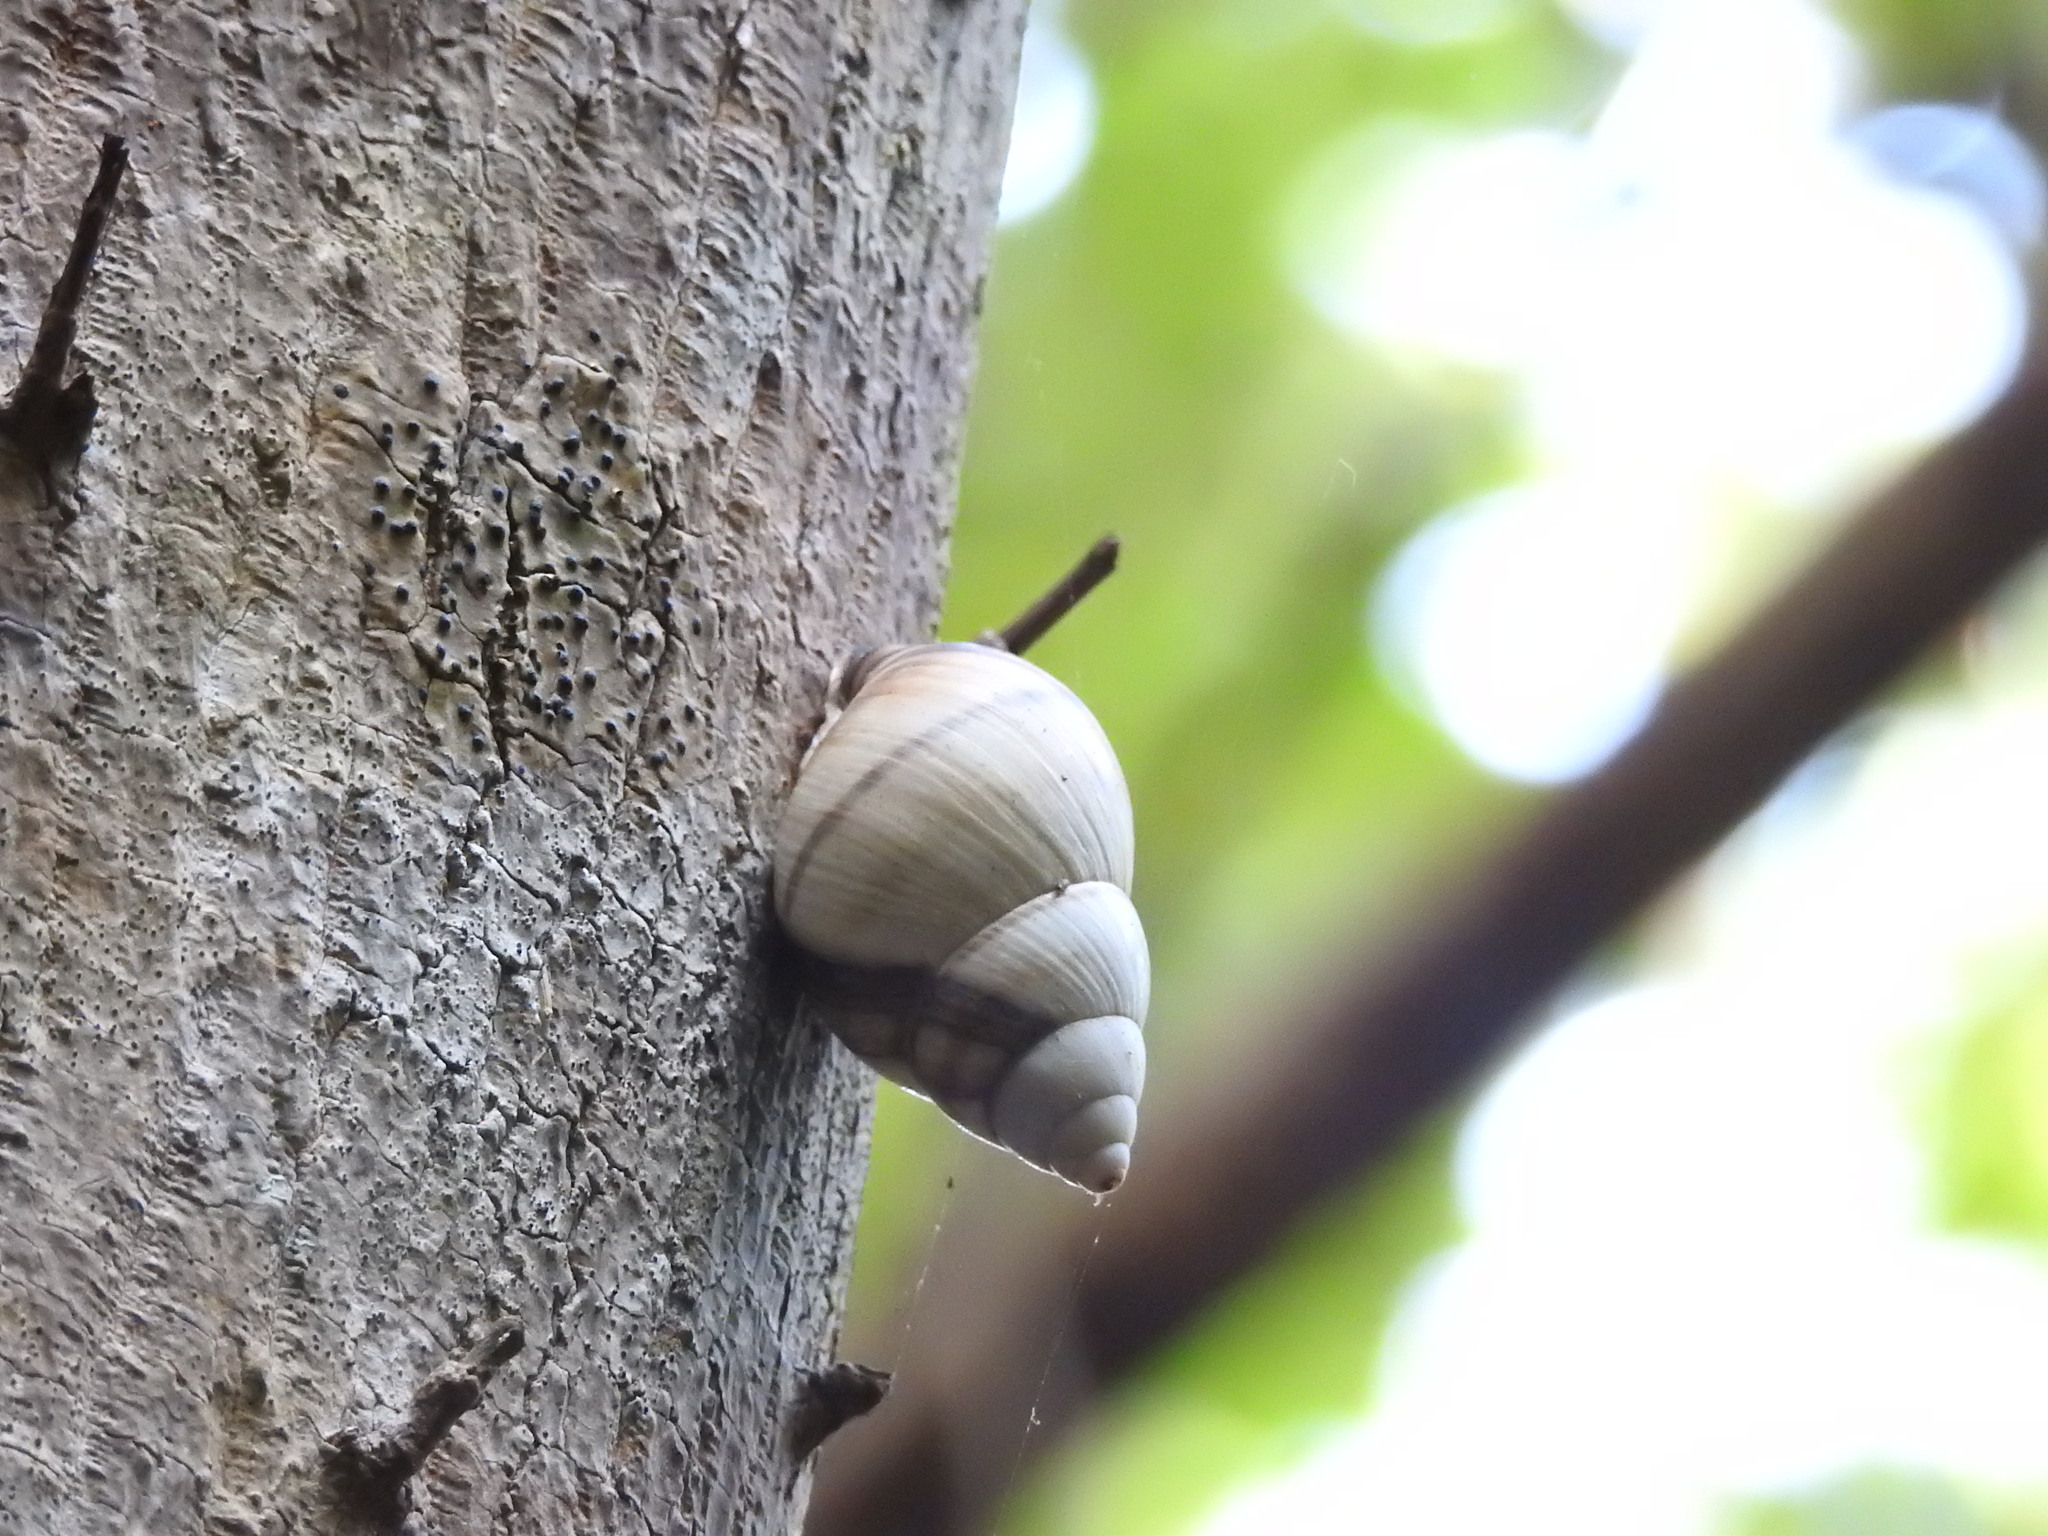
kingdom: Animalia
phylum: Mollusca
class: Gastropoda
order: Stylommatophora
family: Orthalicidae
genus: Orthalicus
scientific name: Orthalicus floridensis
